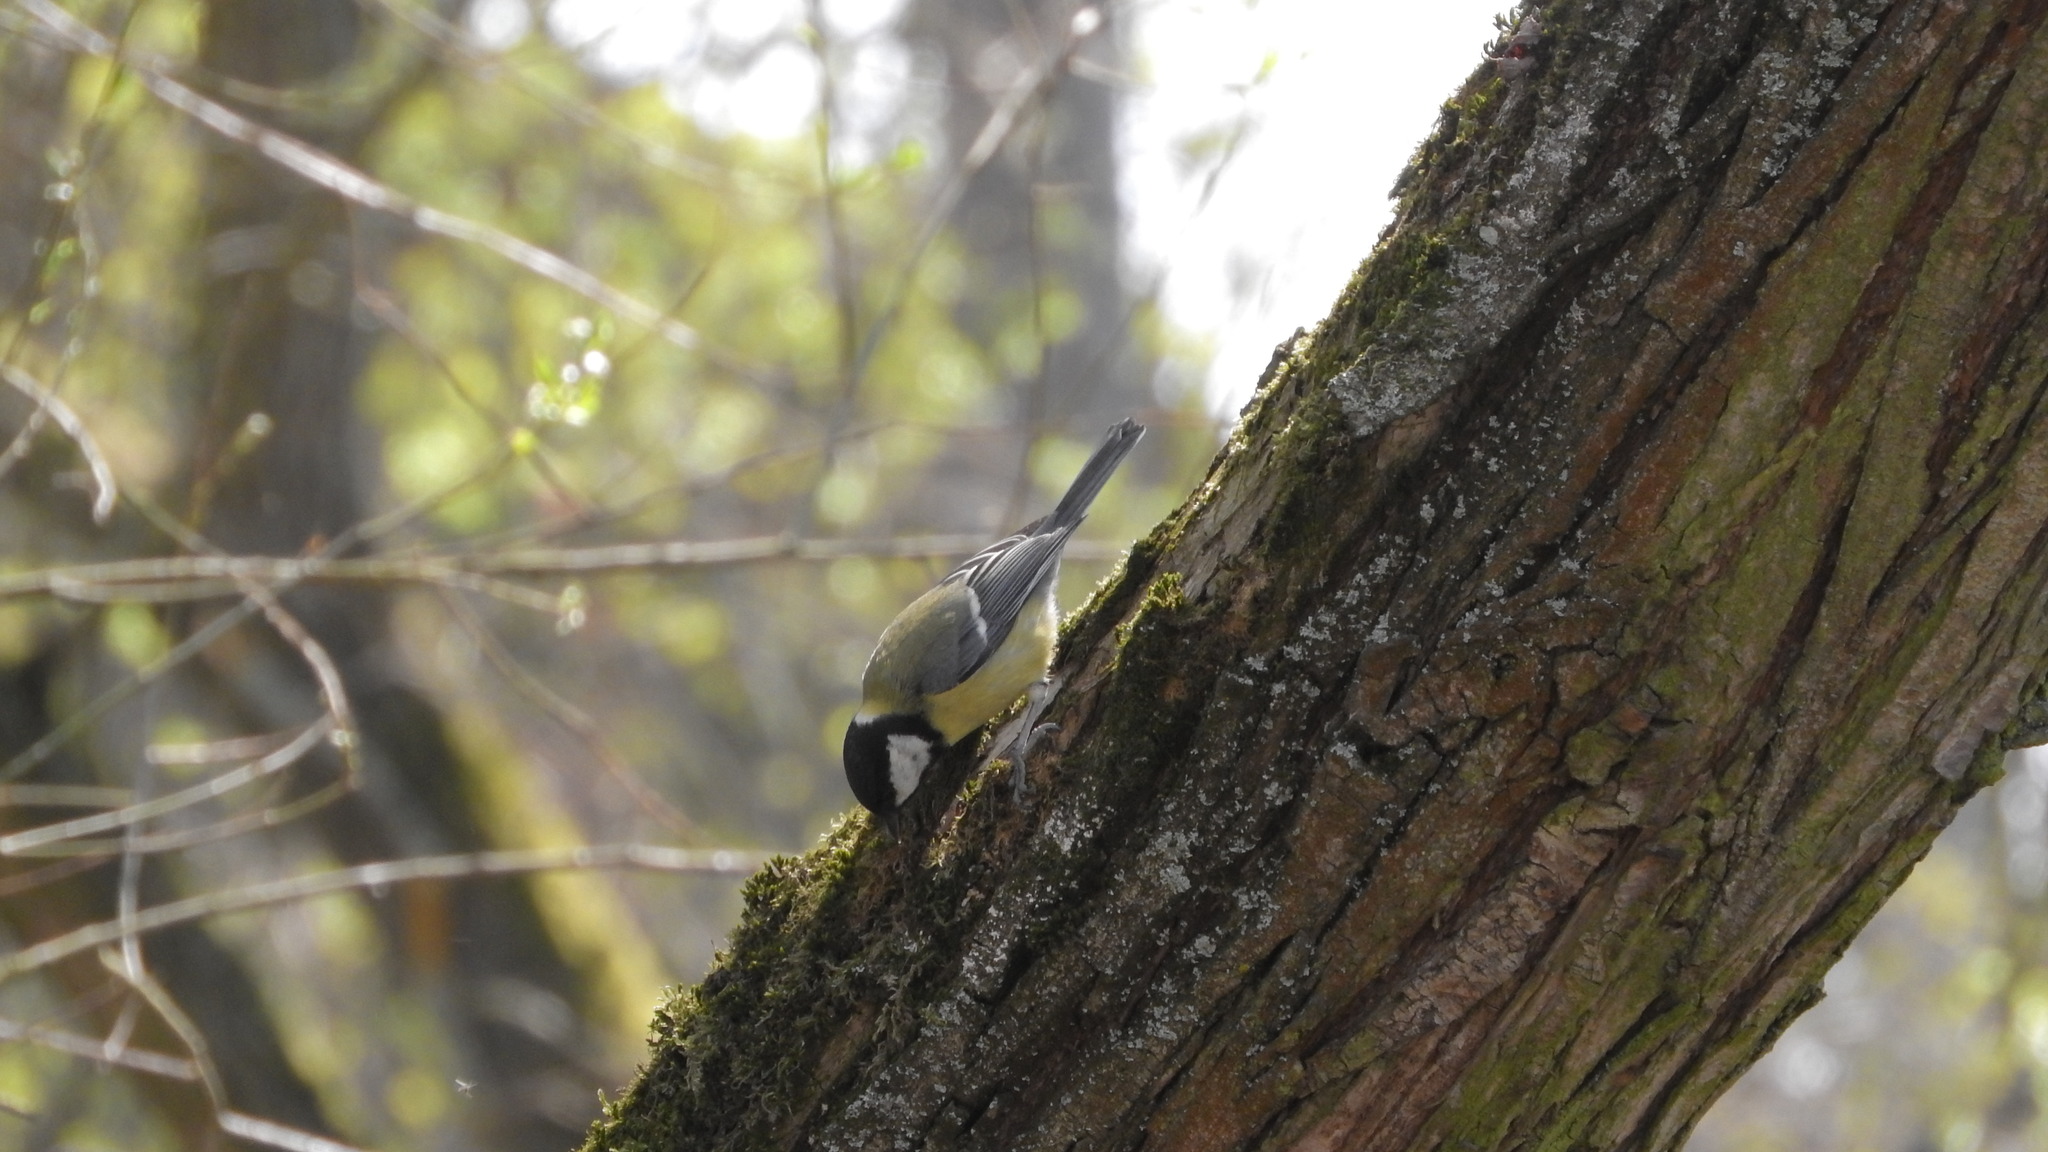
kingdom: Animalia
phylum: Chordata
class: Aves
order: Passeriformes
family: Paridae
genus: Parus
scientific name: Parus major
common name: Great tit
